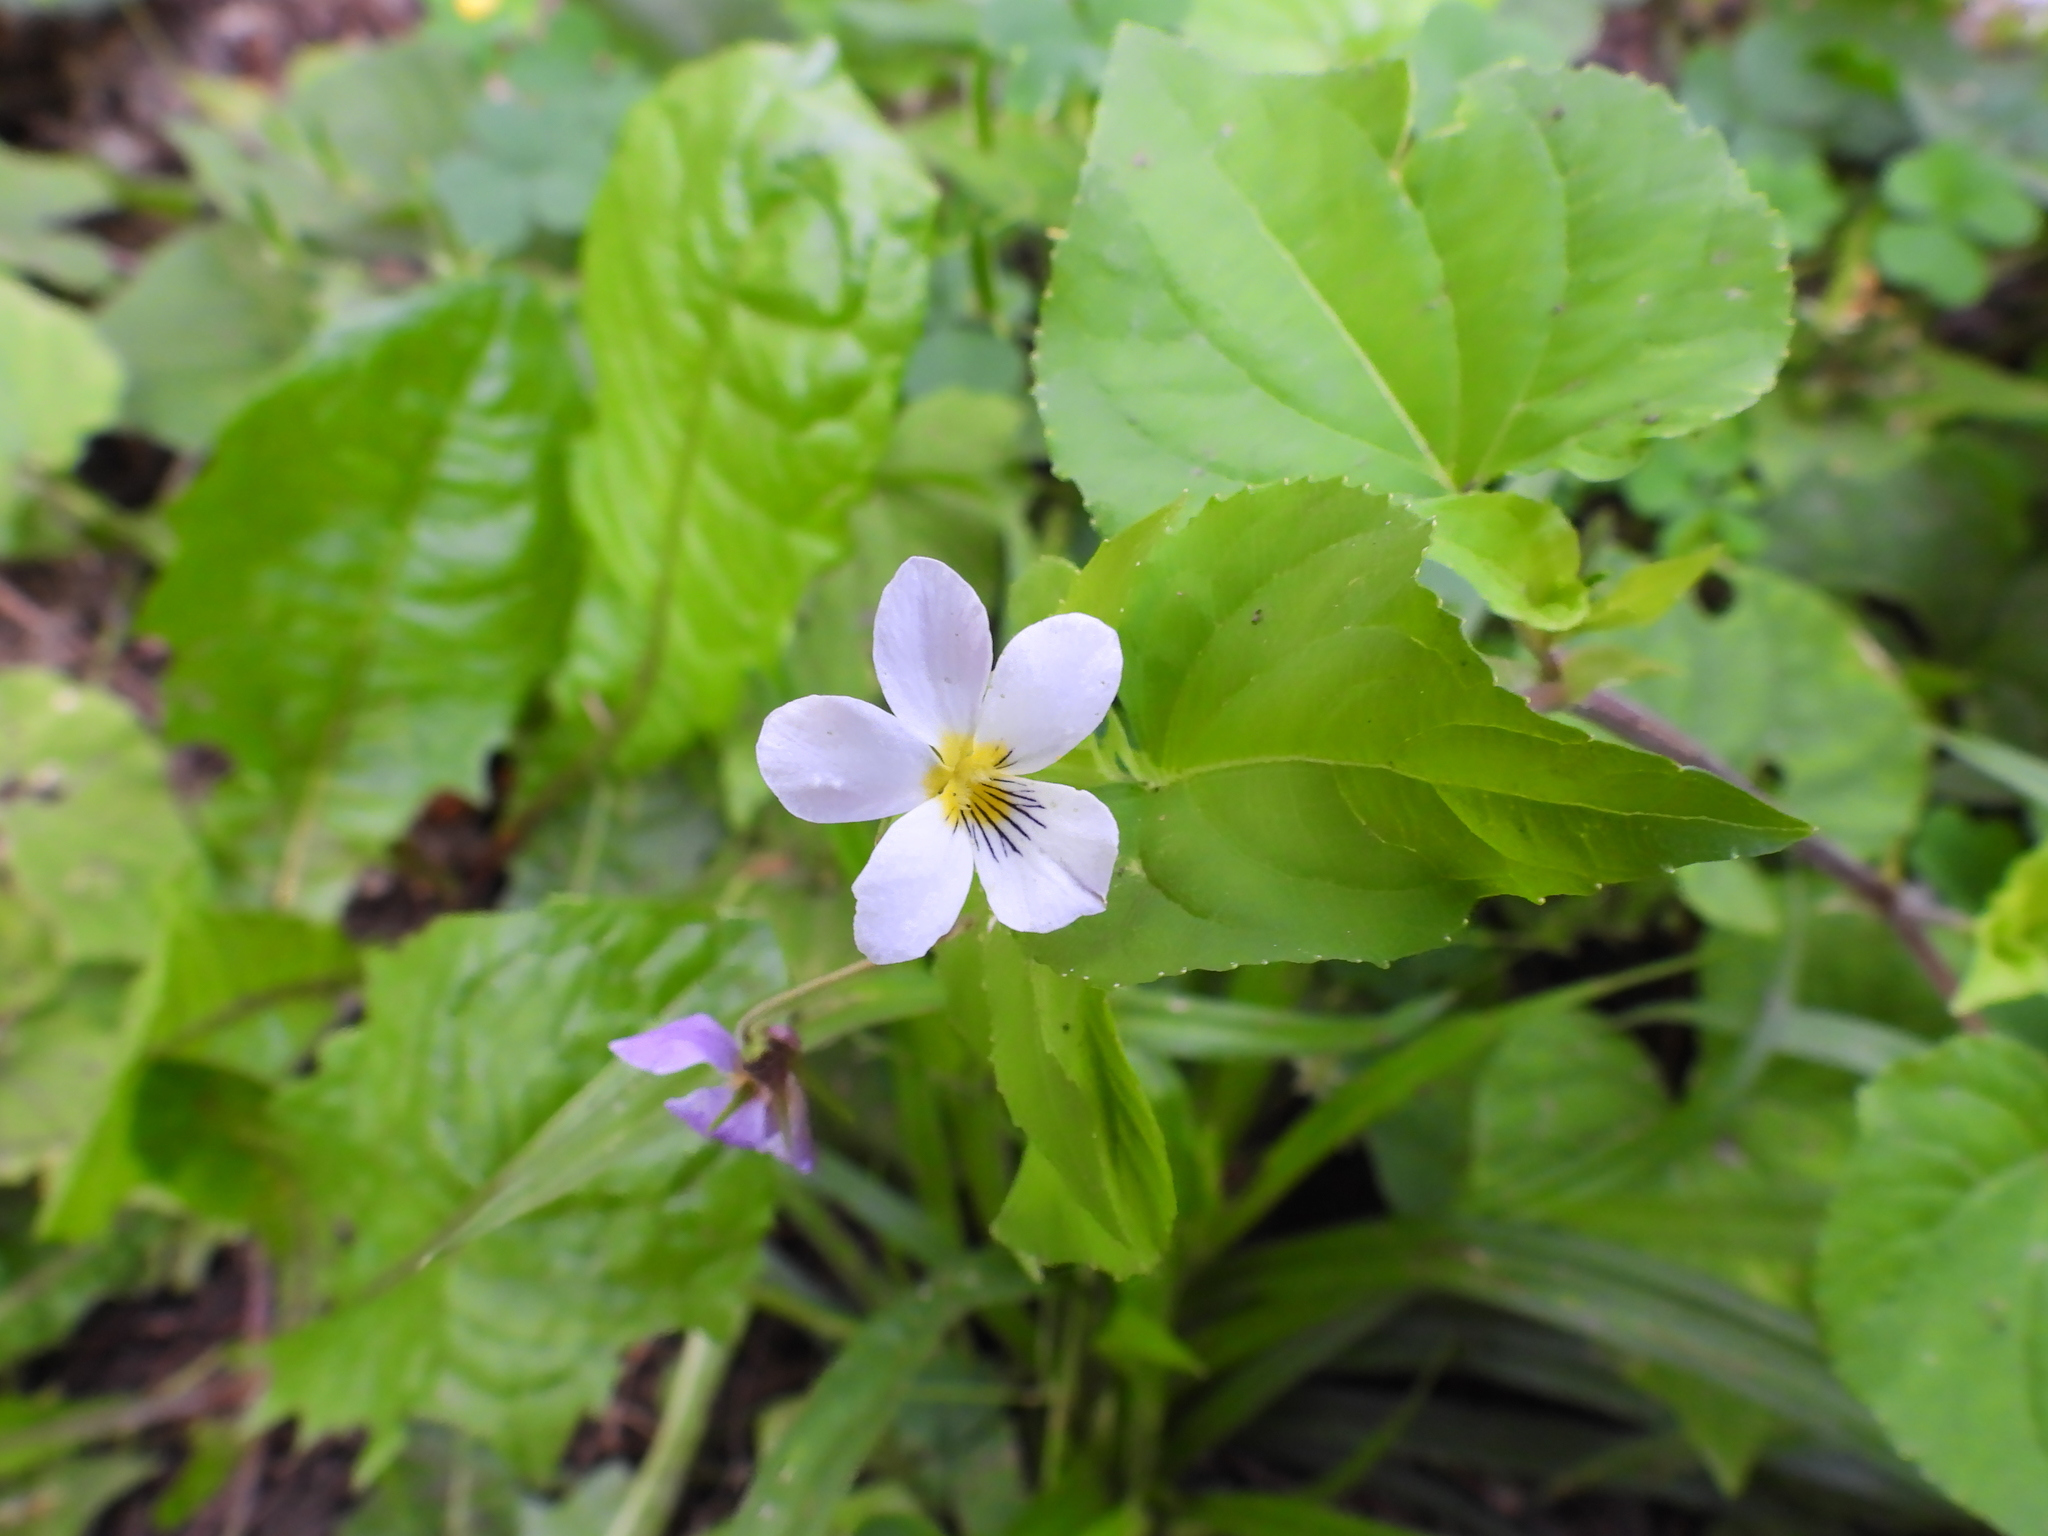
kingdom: Plantae
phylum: Tracheophyta
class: Magnoliopsida
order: Malpighiales
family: Violaceae
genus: Viola
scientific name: Viola canadensis
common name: Canada violet
